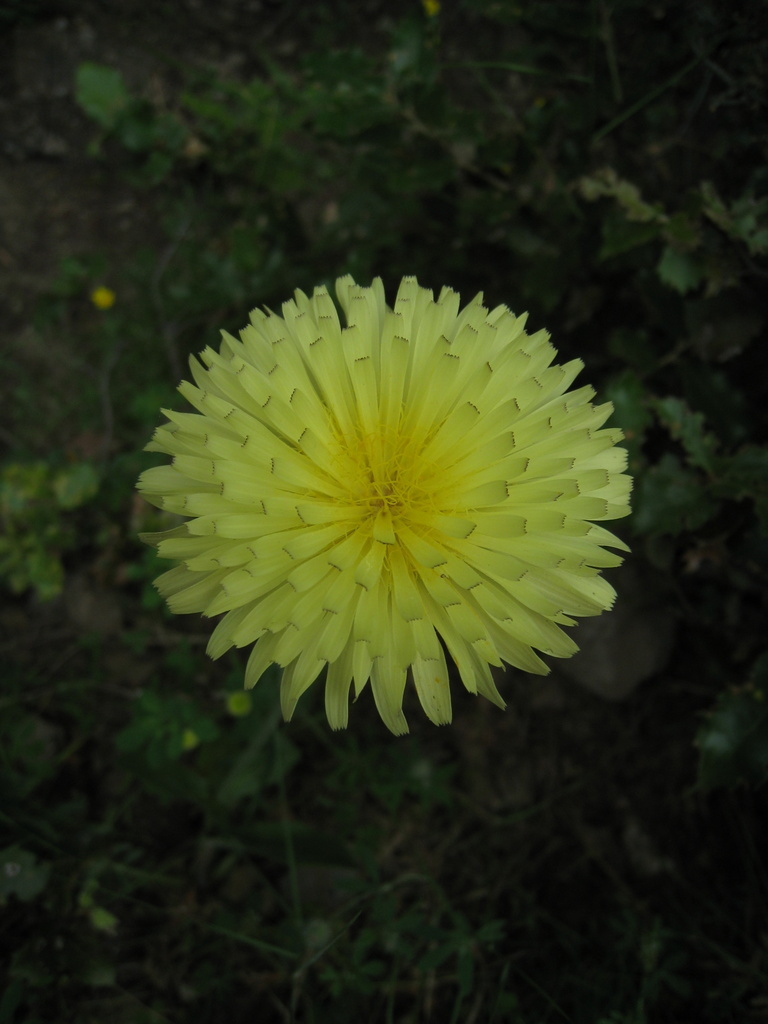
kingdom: Plantae
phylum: Tracheophyta
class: Magnoliopsida
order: Asterales
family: Asteraceae
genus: Urospermum
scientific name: Urospermum dalechampii
